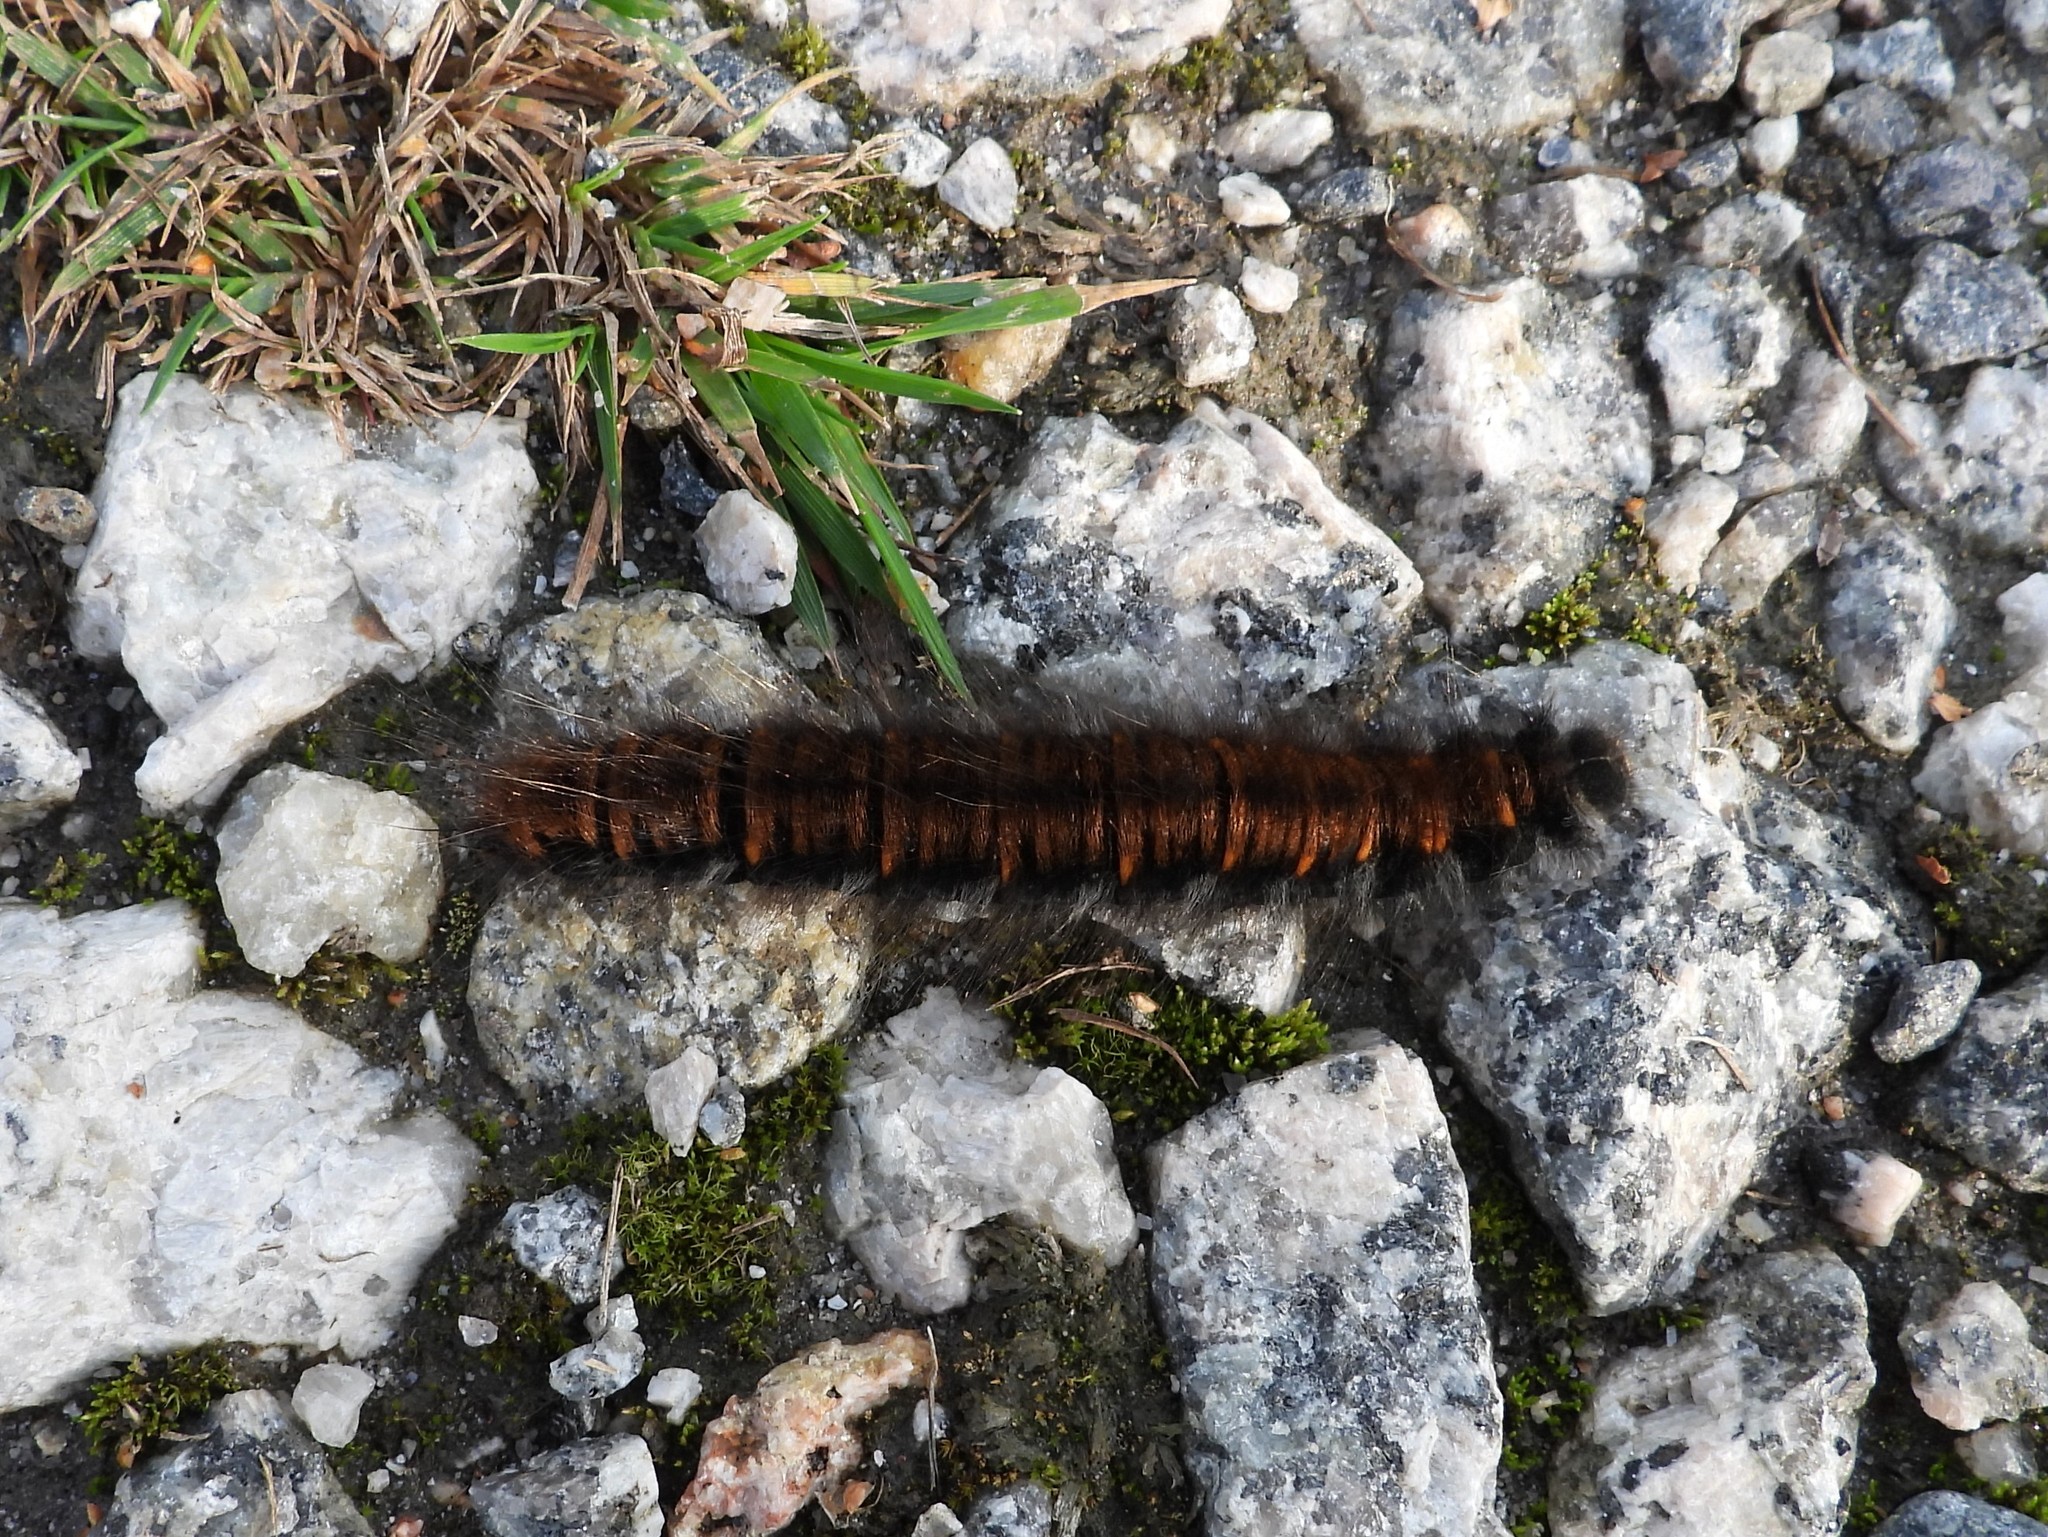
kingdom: Animalia
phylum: Arthropoda
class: Insecta
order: Lepidoptera
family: Lasiocampidae
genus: Macrothylacia
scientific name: Macrothylacia rubi
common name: Fox moth
